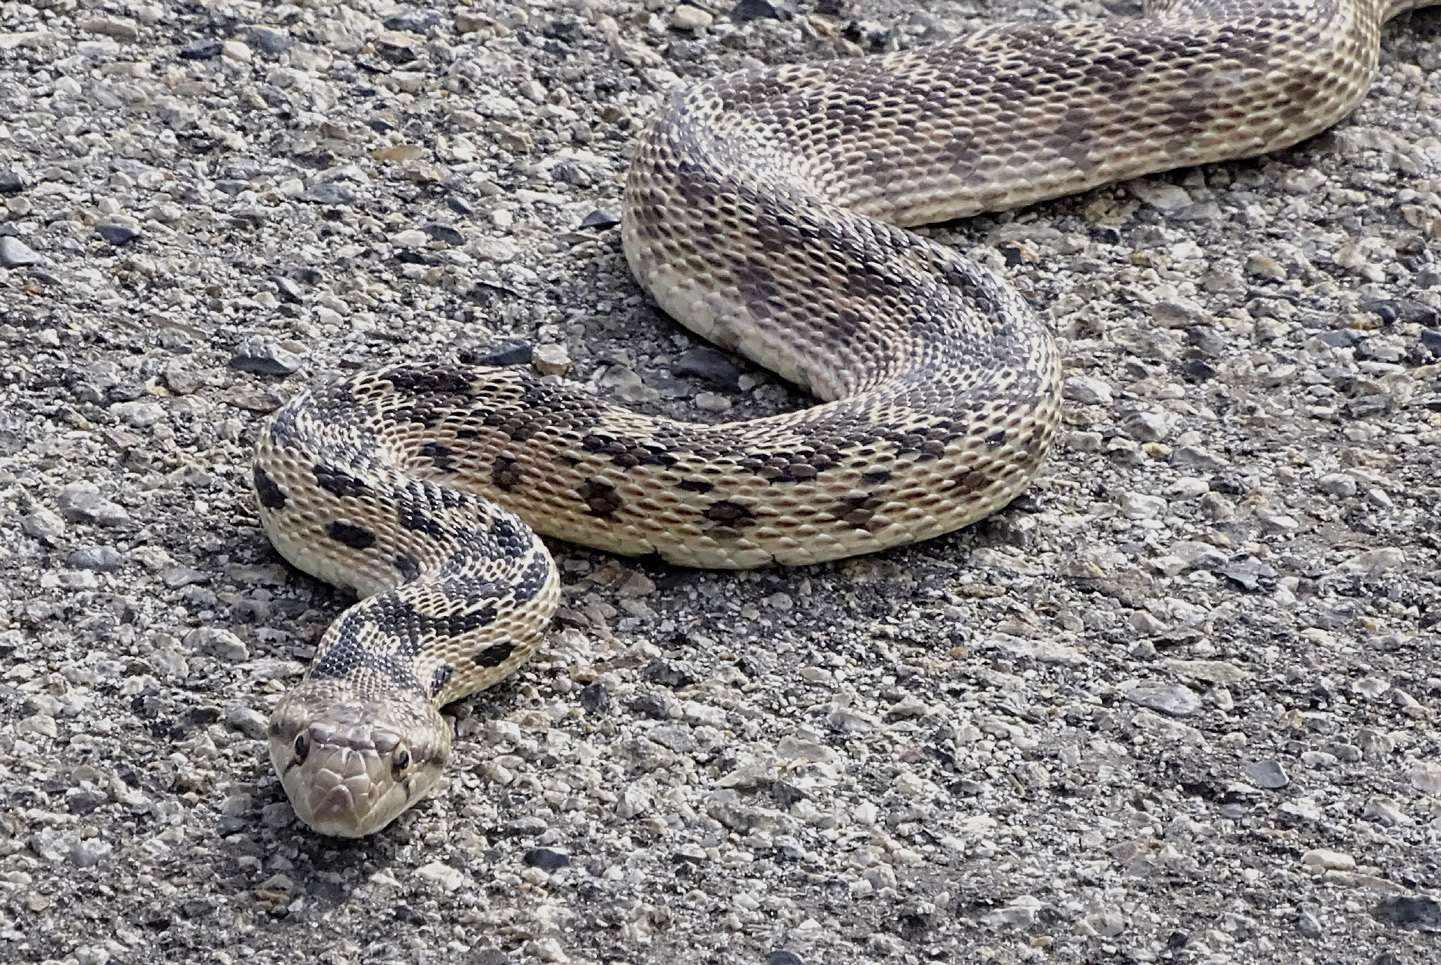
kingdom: Animalia
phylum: Chordata
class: Squamata
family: Colubridae
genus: Pituophis
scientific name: Pituophis catenifer
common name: Gopher snake
